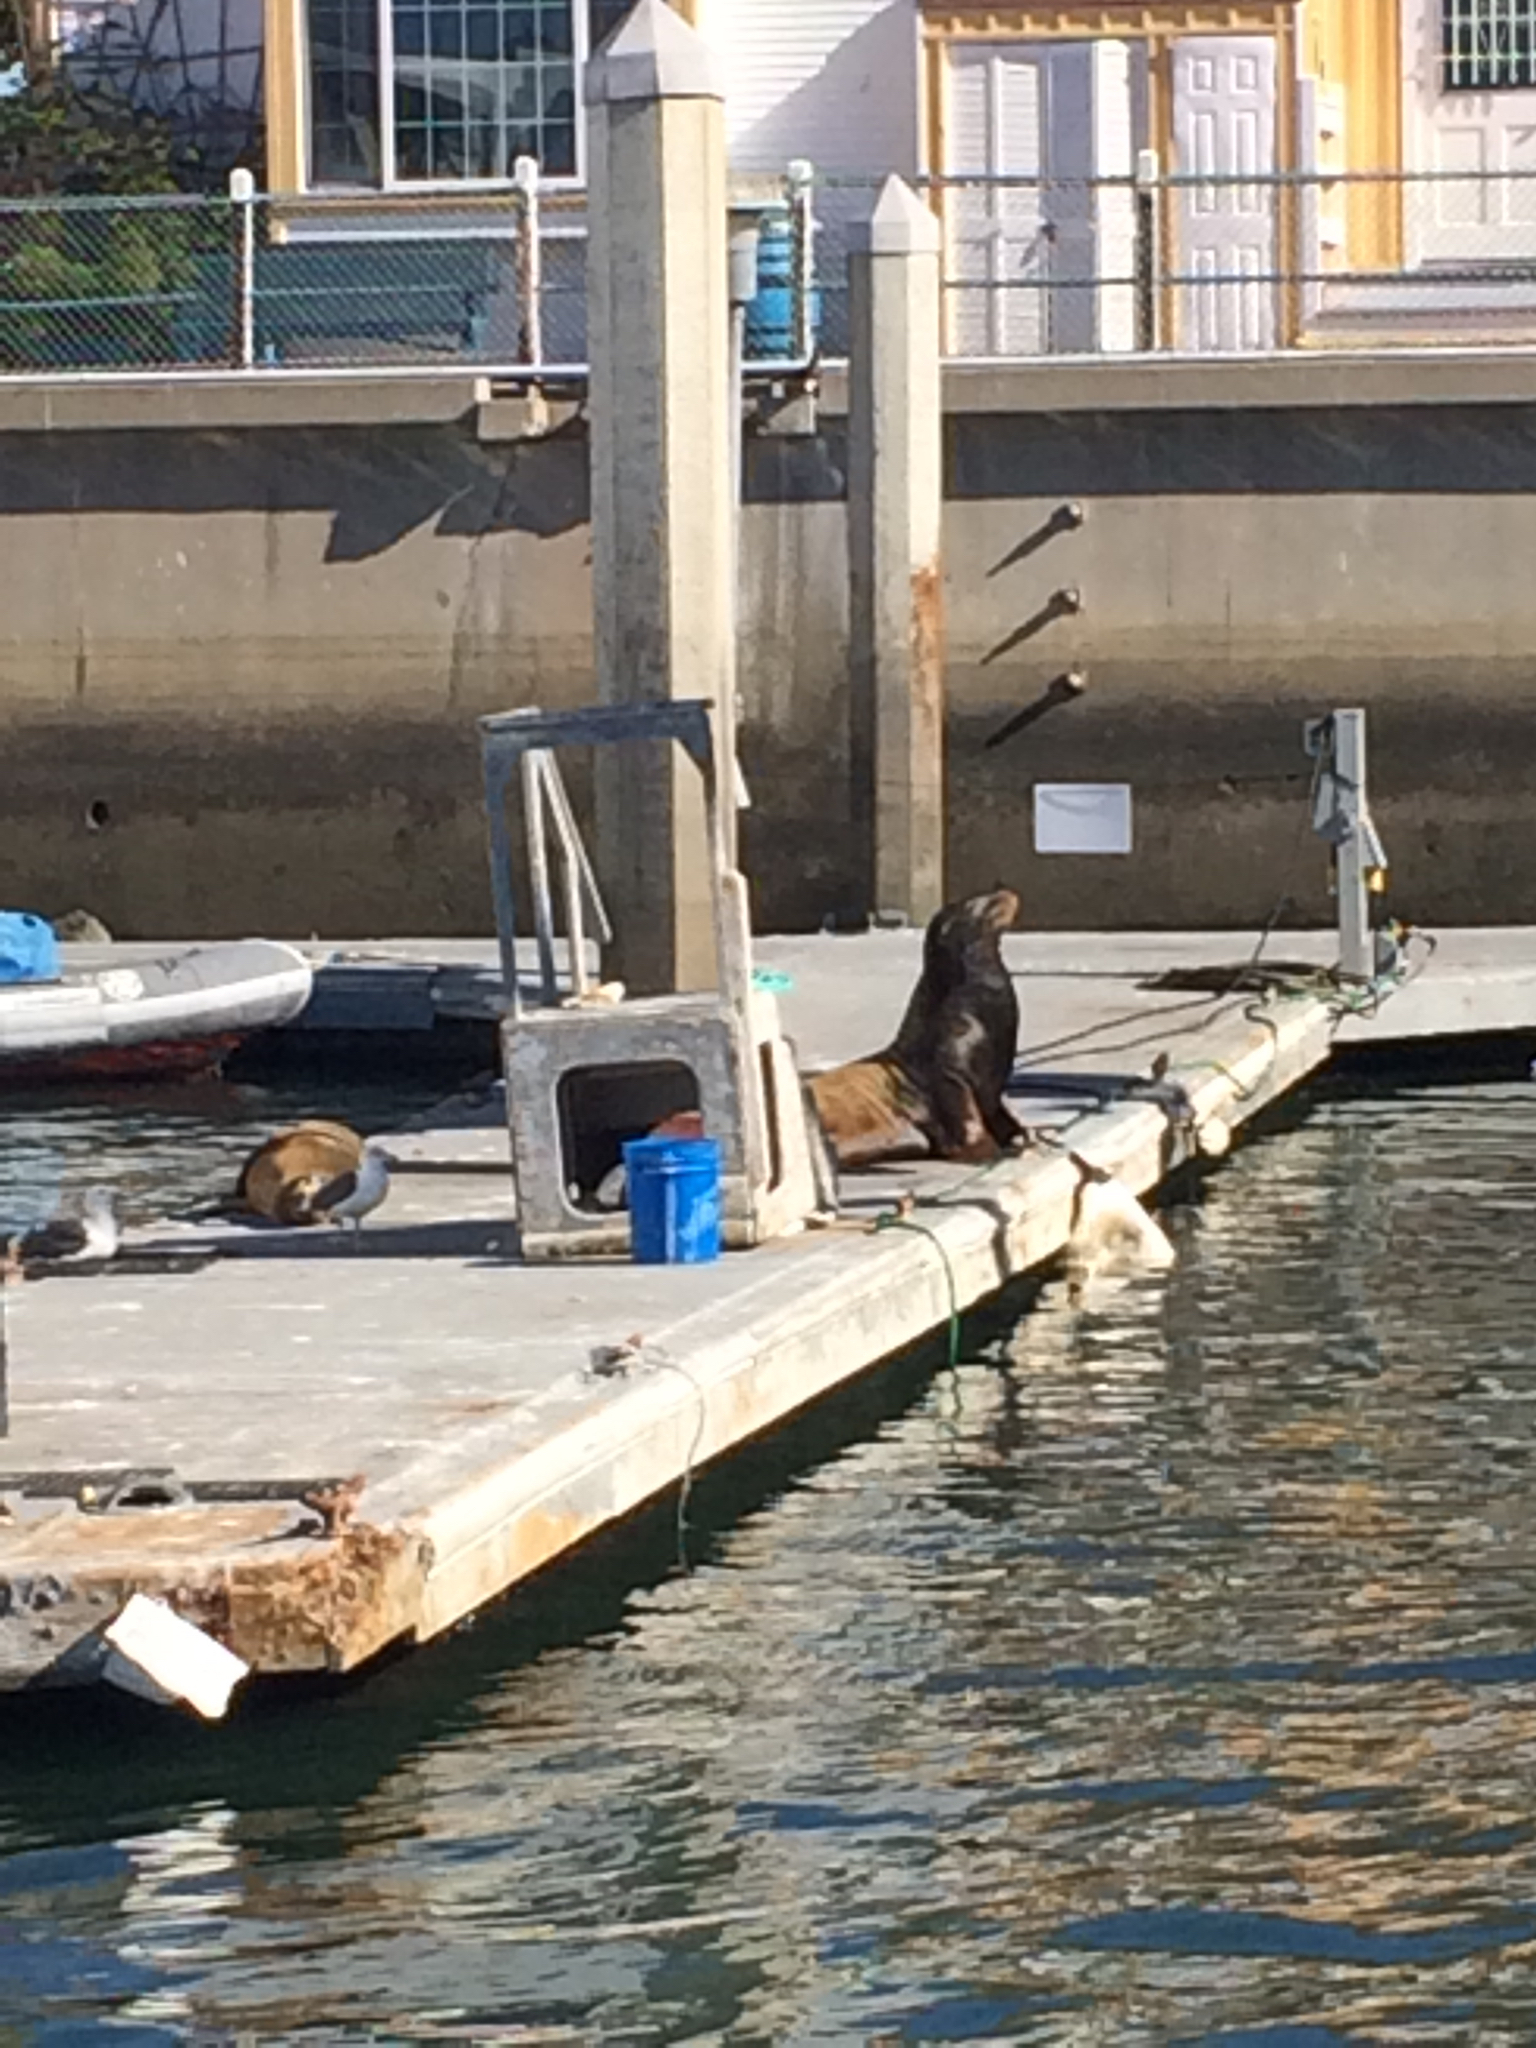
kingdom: Animalia
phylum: Chordata
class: Mammalia
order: Carnivora
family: Otariidae
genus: Zalophus
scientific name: Zalophus californianus
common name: California sea lion
